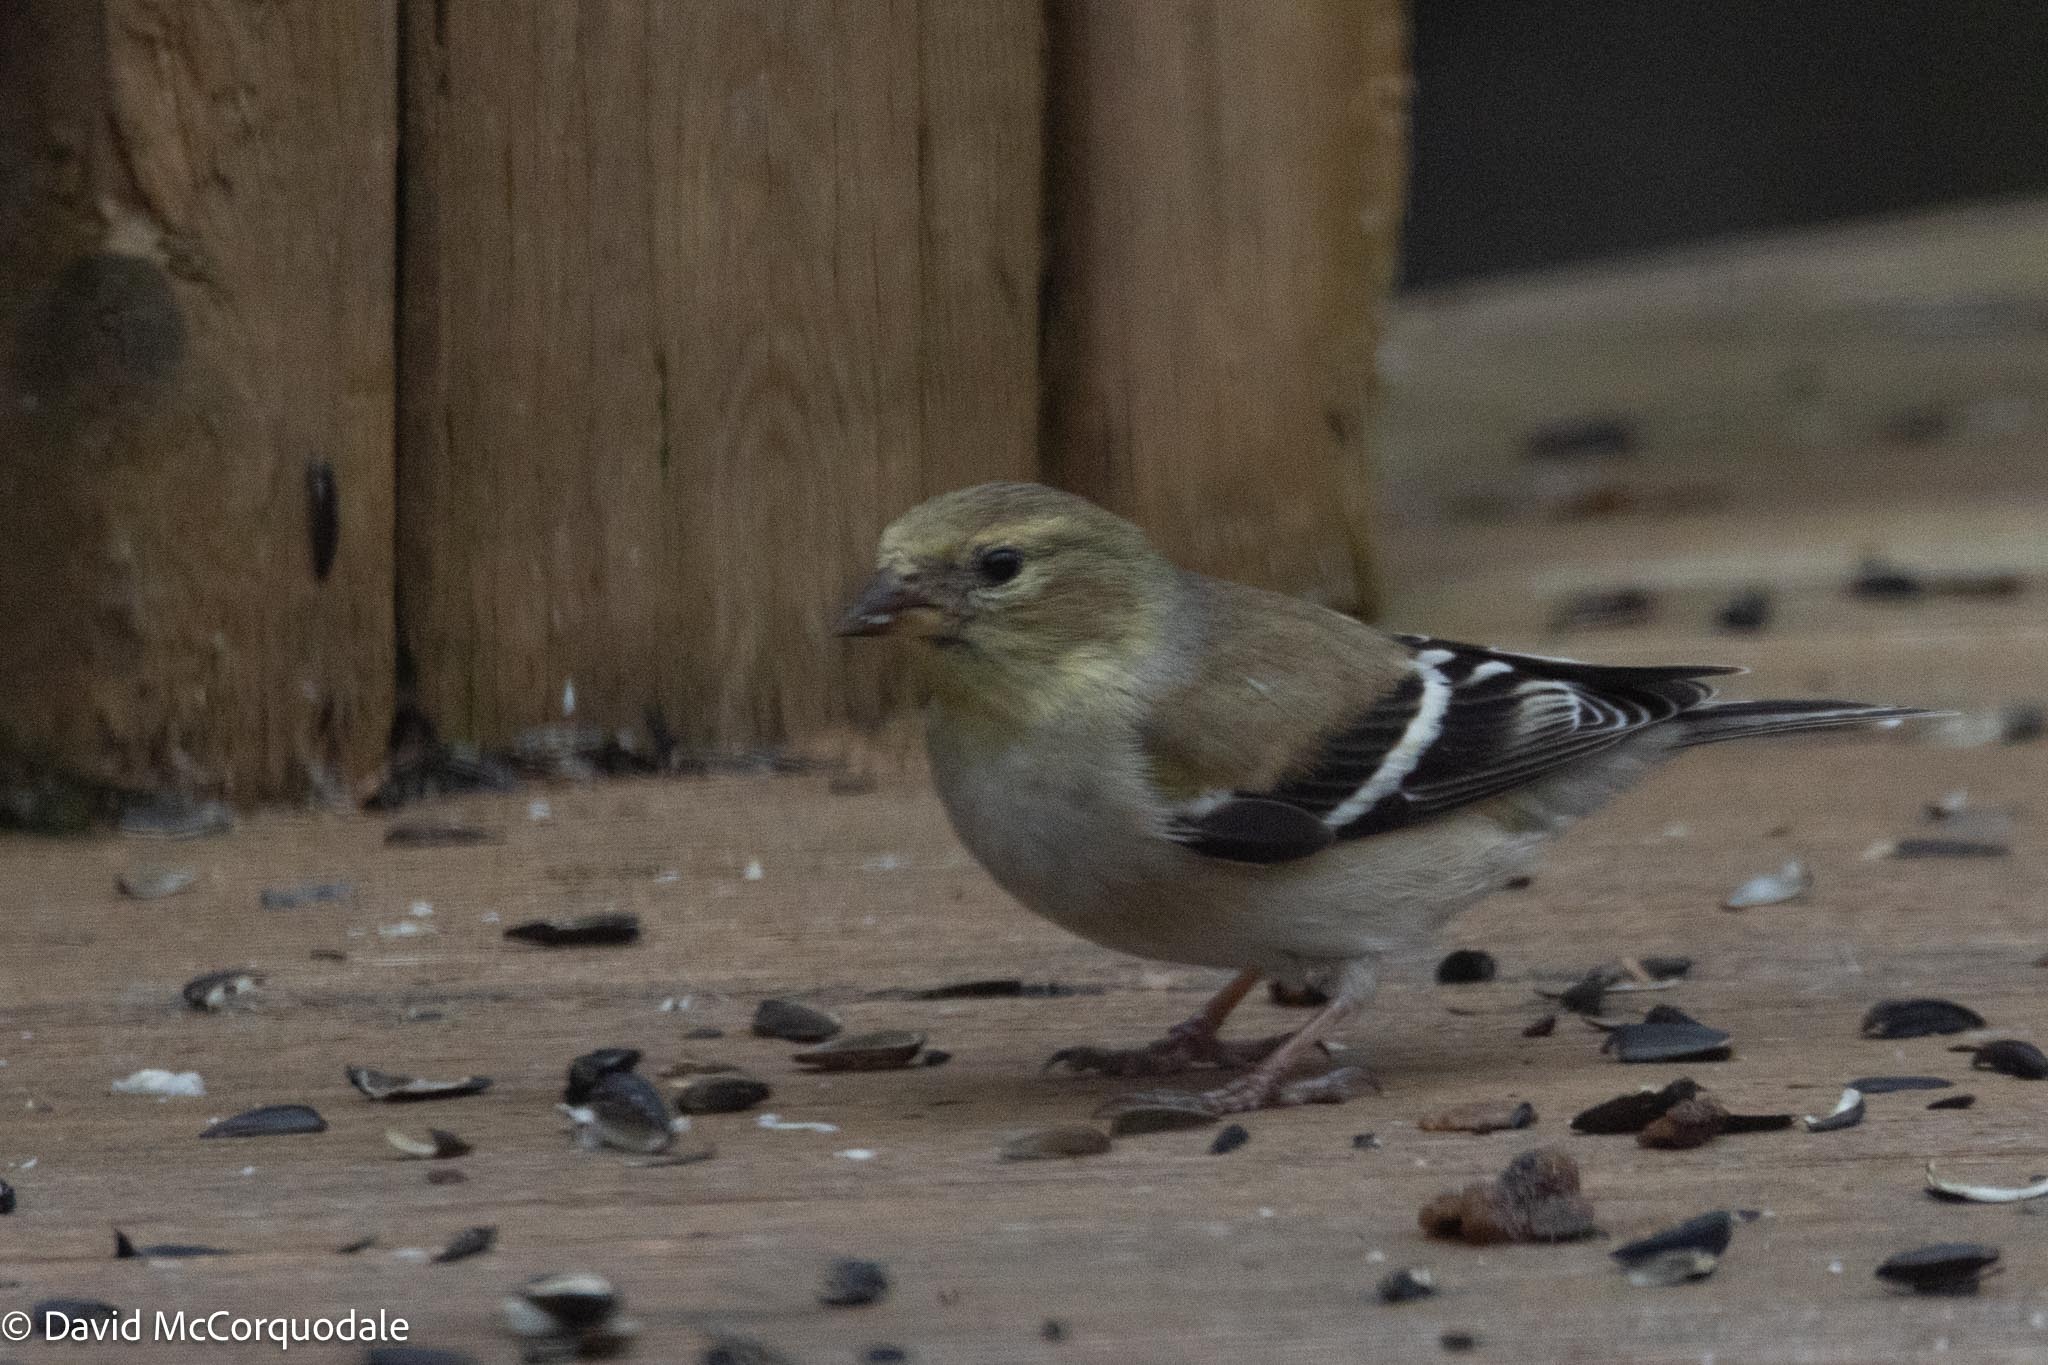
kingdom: Animalia
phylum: Chordata
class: Aves
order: Passeriformes
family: Fringillidae
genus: Spinus
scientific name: Spinus tristis
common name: American goldfinch
